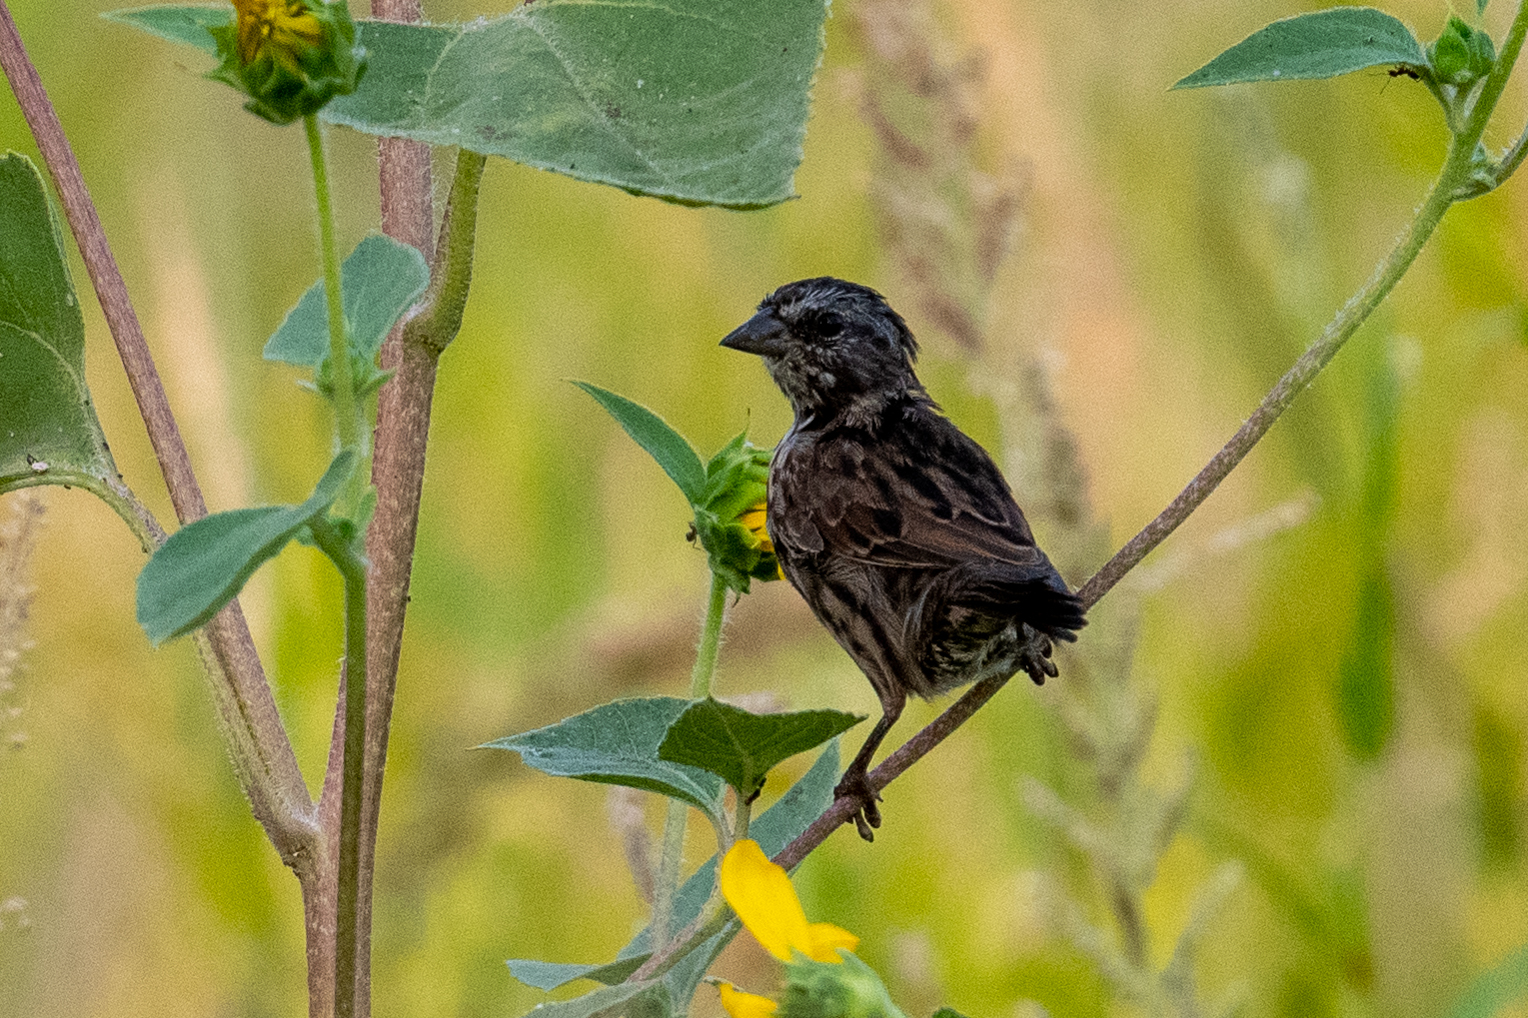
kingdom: Animalia
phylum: Chordata
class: Aves
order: Passeriformes
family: Passerellidae
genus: Melospiza
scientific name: Melospiza melodia
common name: Song sparrow
